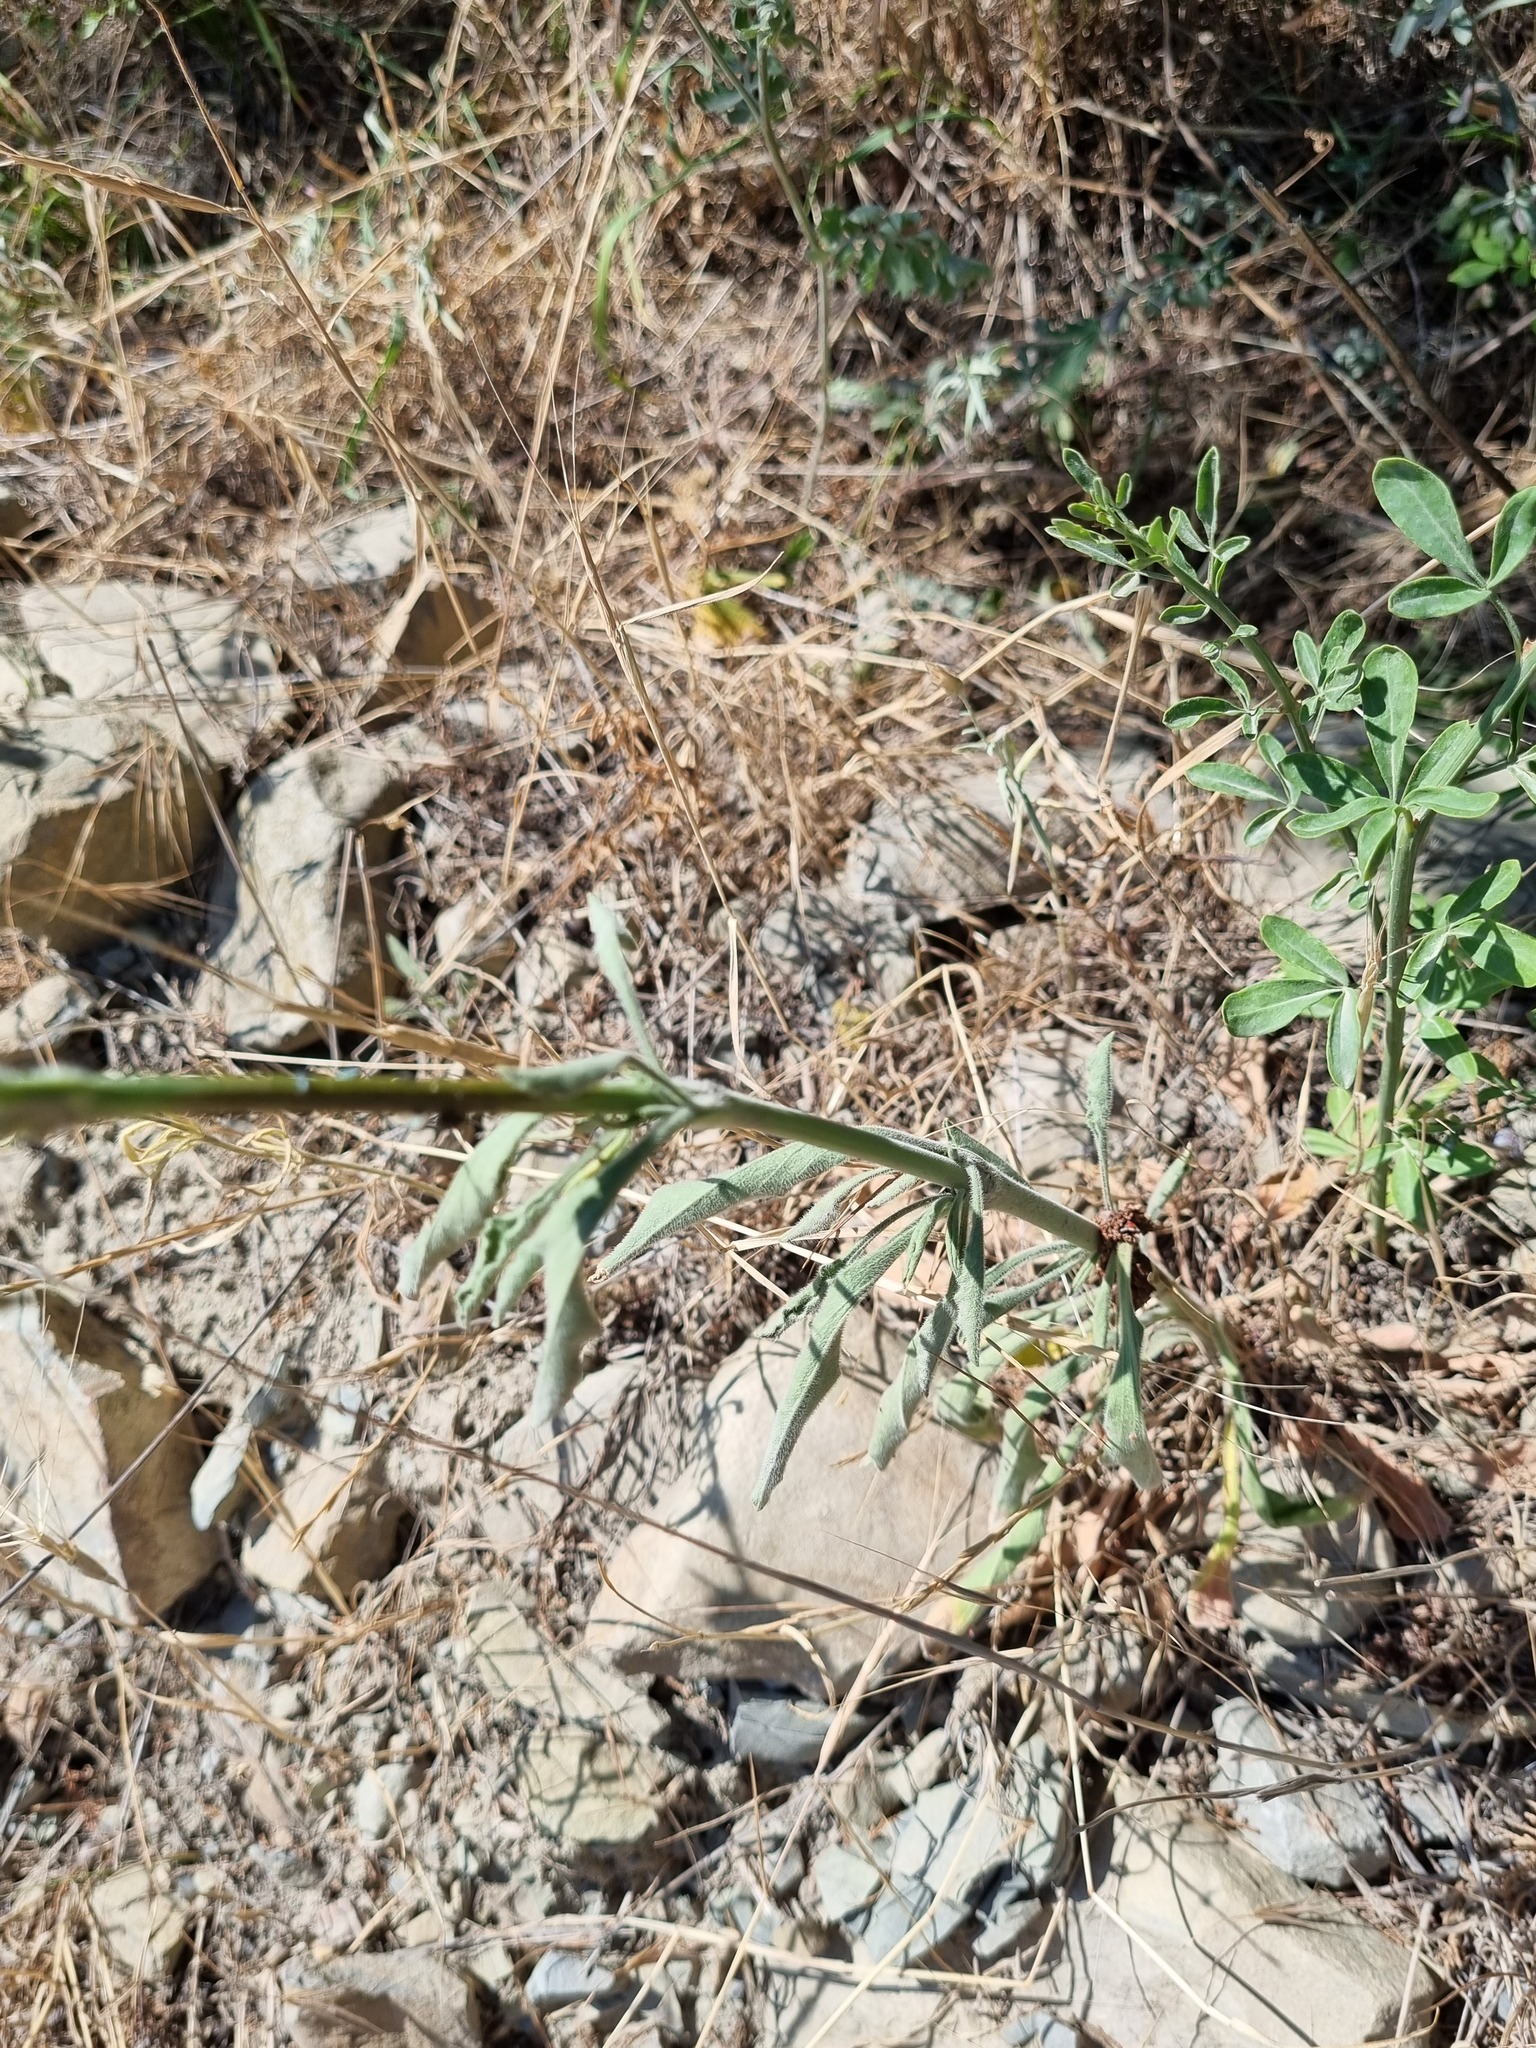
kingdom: Plantae
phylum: Tracheophyta
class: Magnoliopsida
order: Caryophyllales
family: Caryophyllaceae
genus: Silene
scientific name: Silene densiflora
